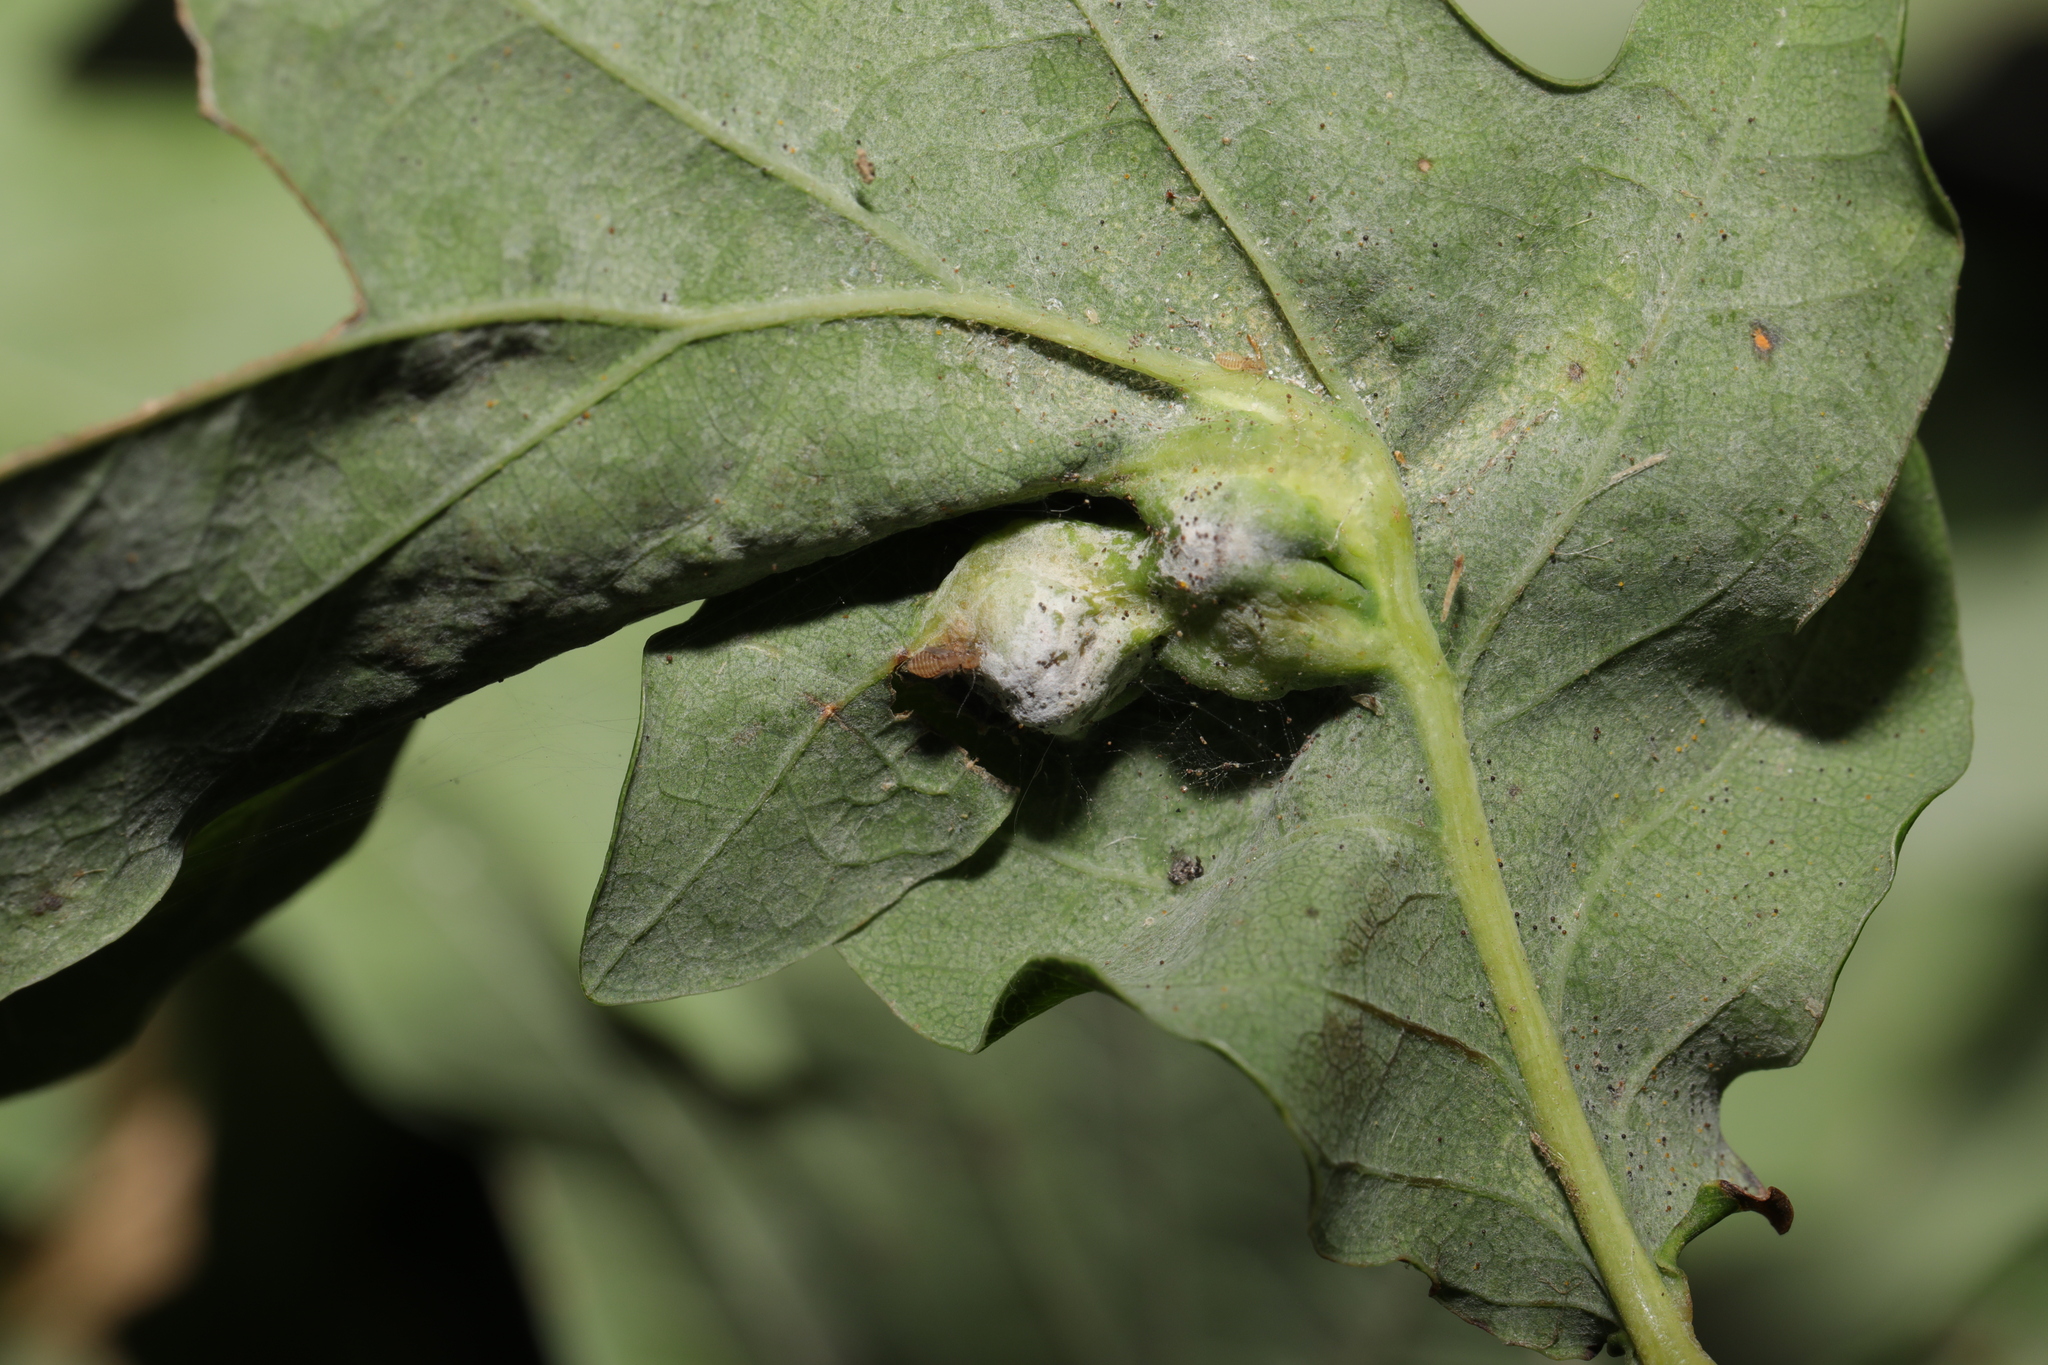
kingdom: Animalia
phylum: Arthropoda
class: Insecta
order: Hymenoptera
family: Cynipidae
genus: Andricus
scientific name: Andricus curvator
